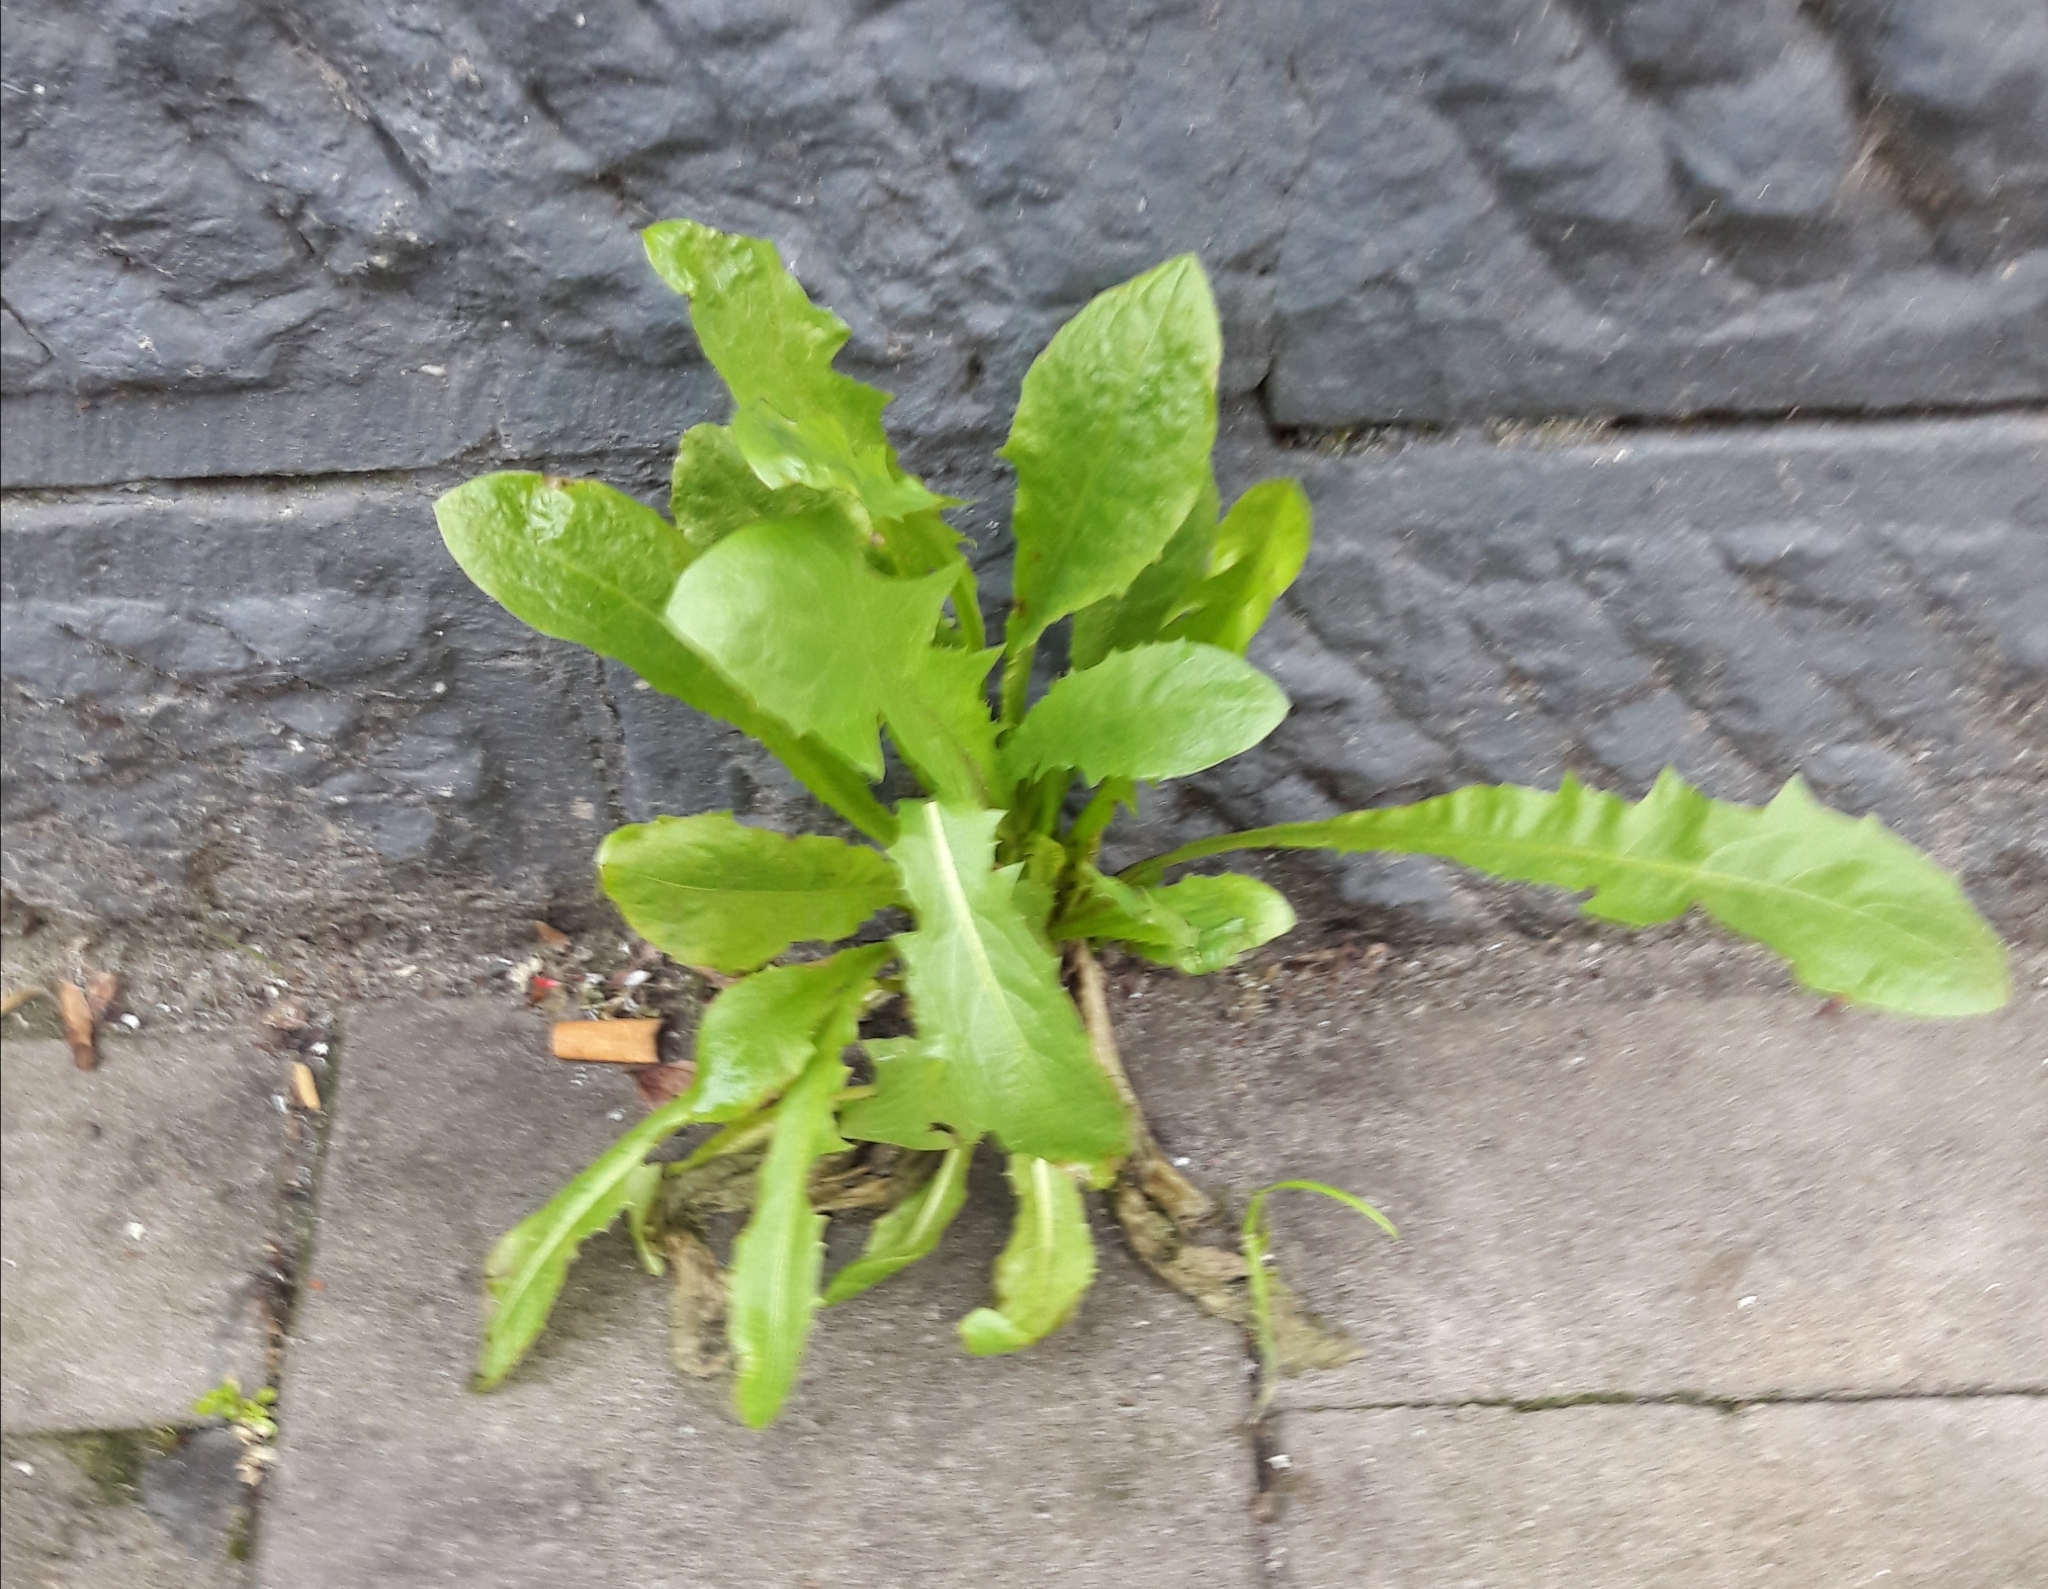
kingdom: Plantae
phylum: Tracheophyta
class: Magnoliopsida
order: Asterales
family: Asteraceae
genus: Taraxacum
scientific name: Taraxacum officinale
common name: Common dandelion
